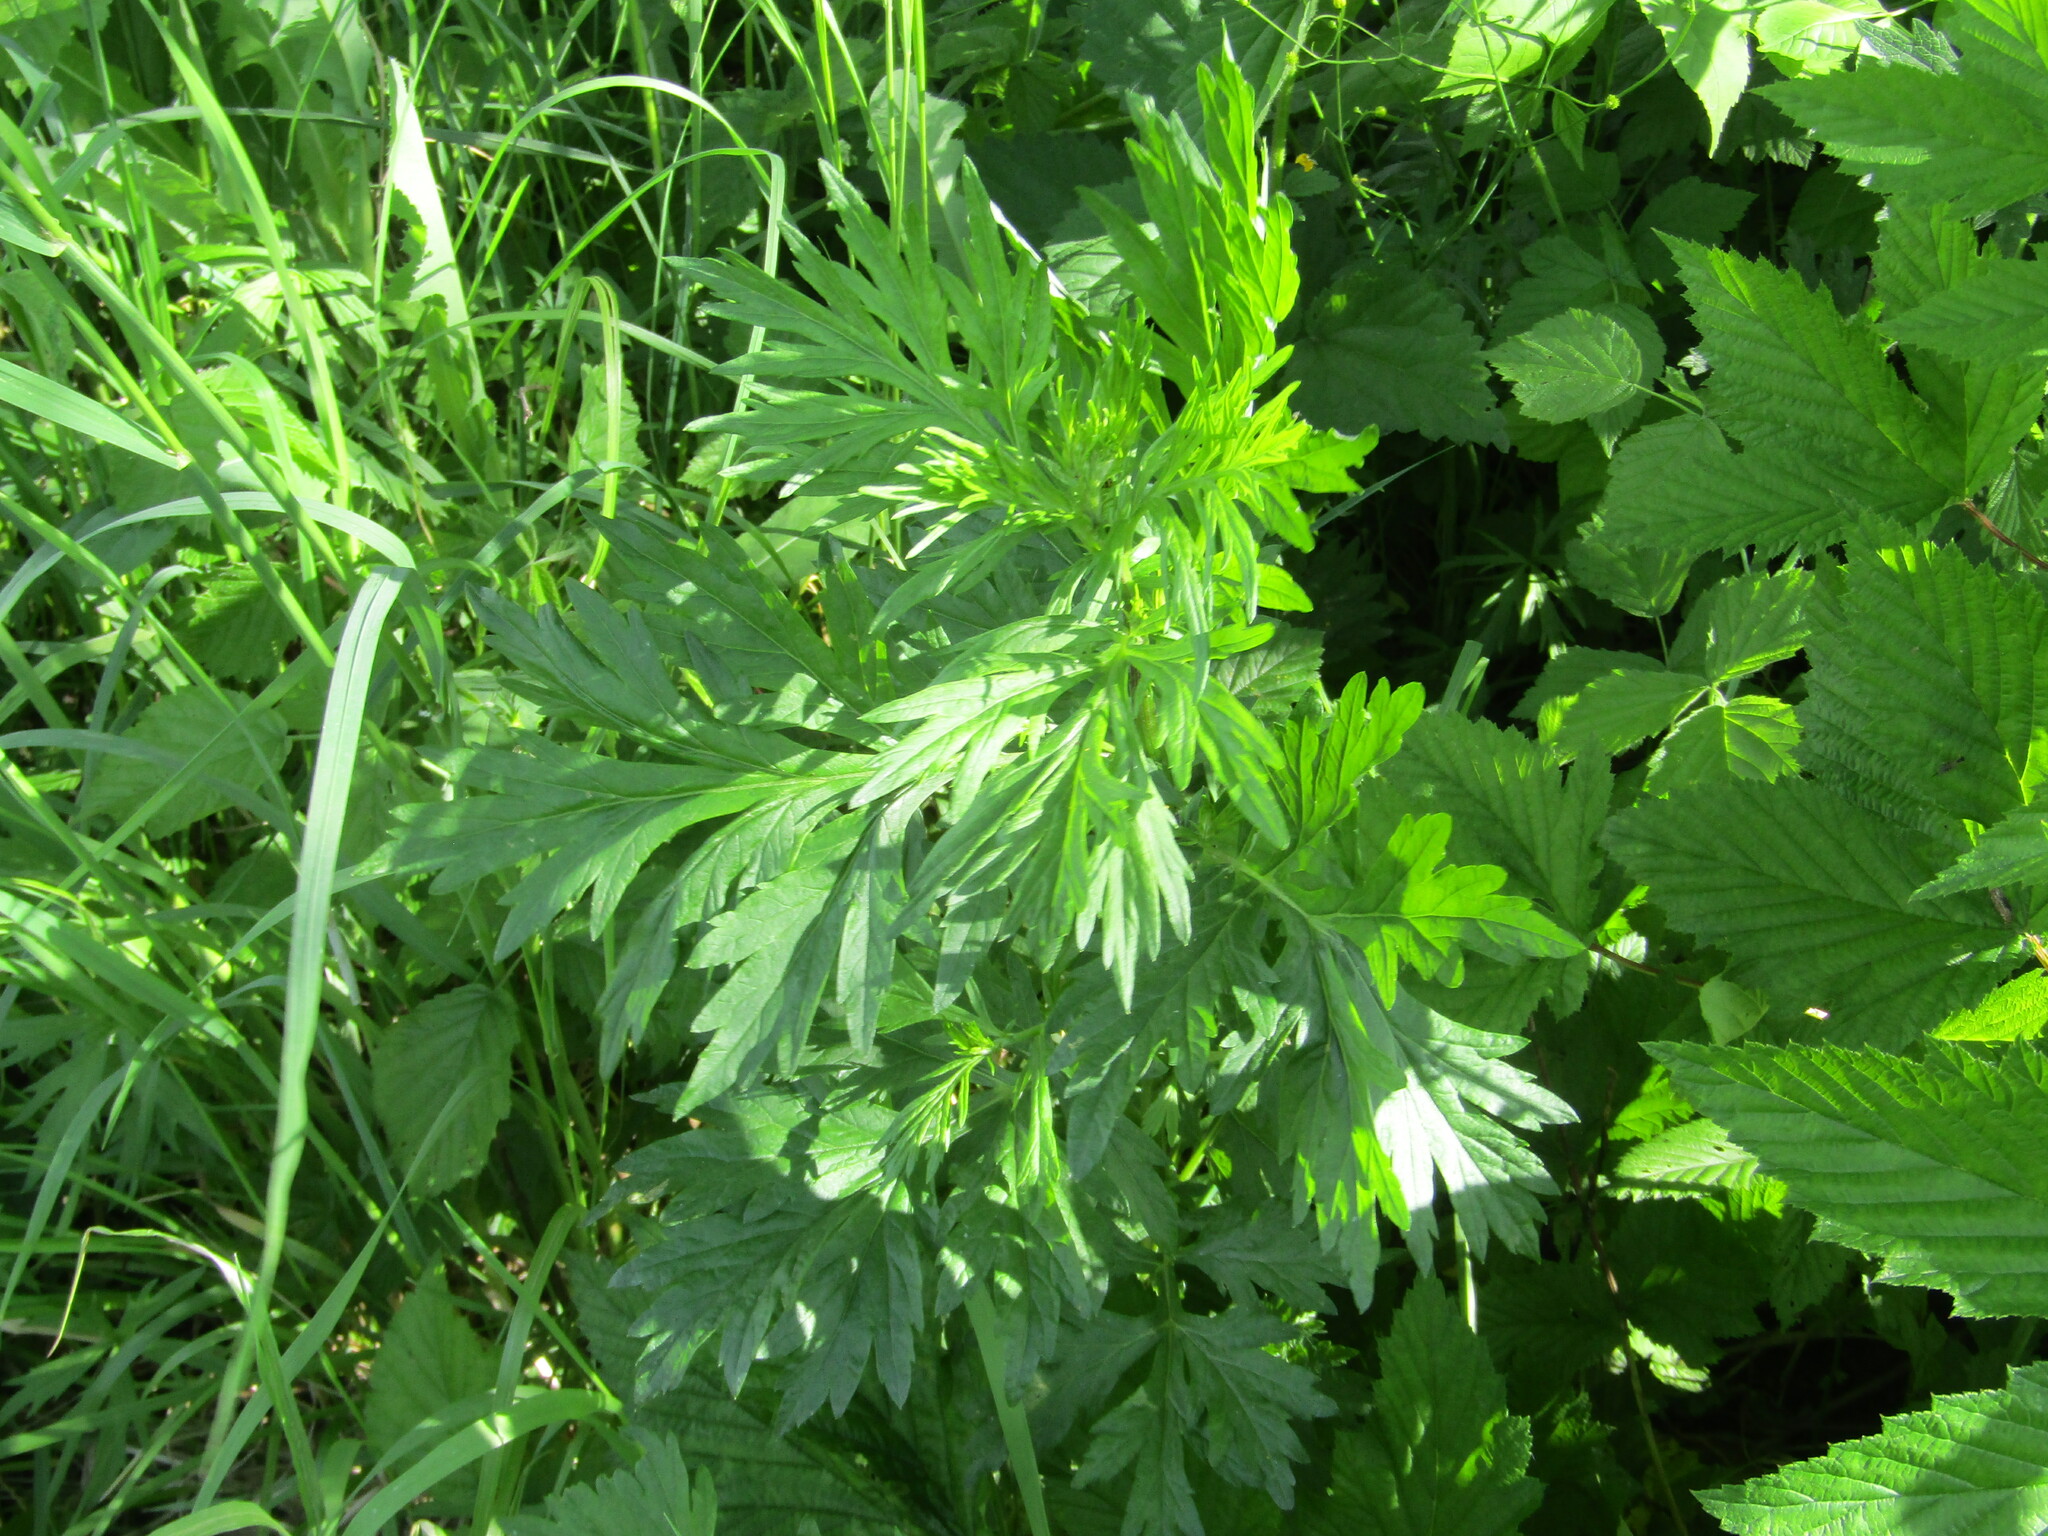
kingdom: Plantae
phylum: Tracheophyta
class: Magnoliopsida
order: Asterales
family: Asteraceae
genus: Artemisia
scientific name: Artemisia vulgaris
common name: Mugwort
